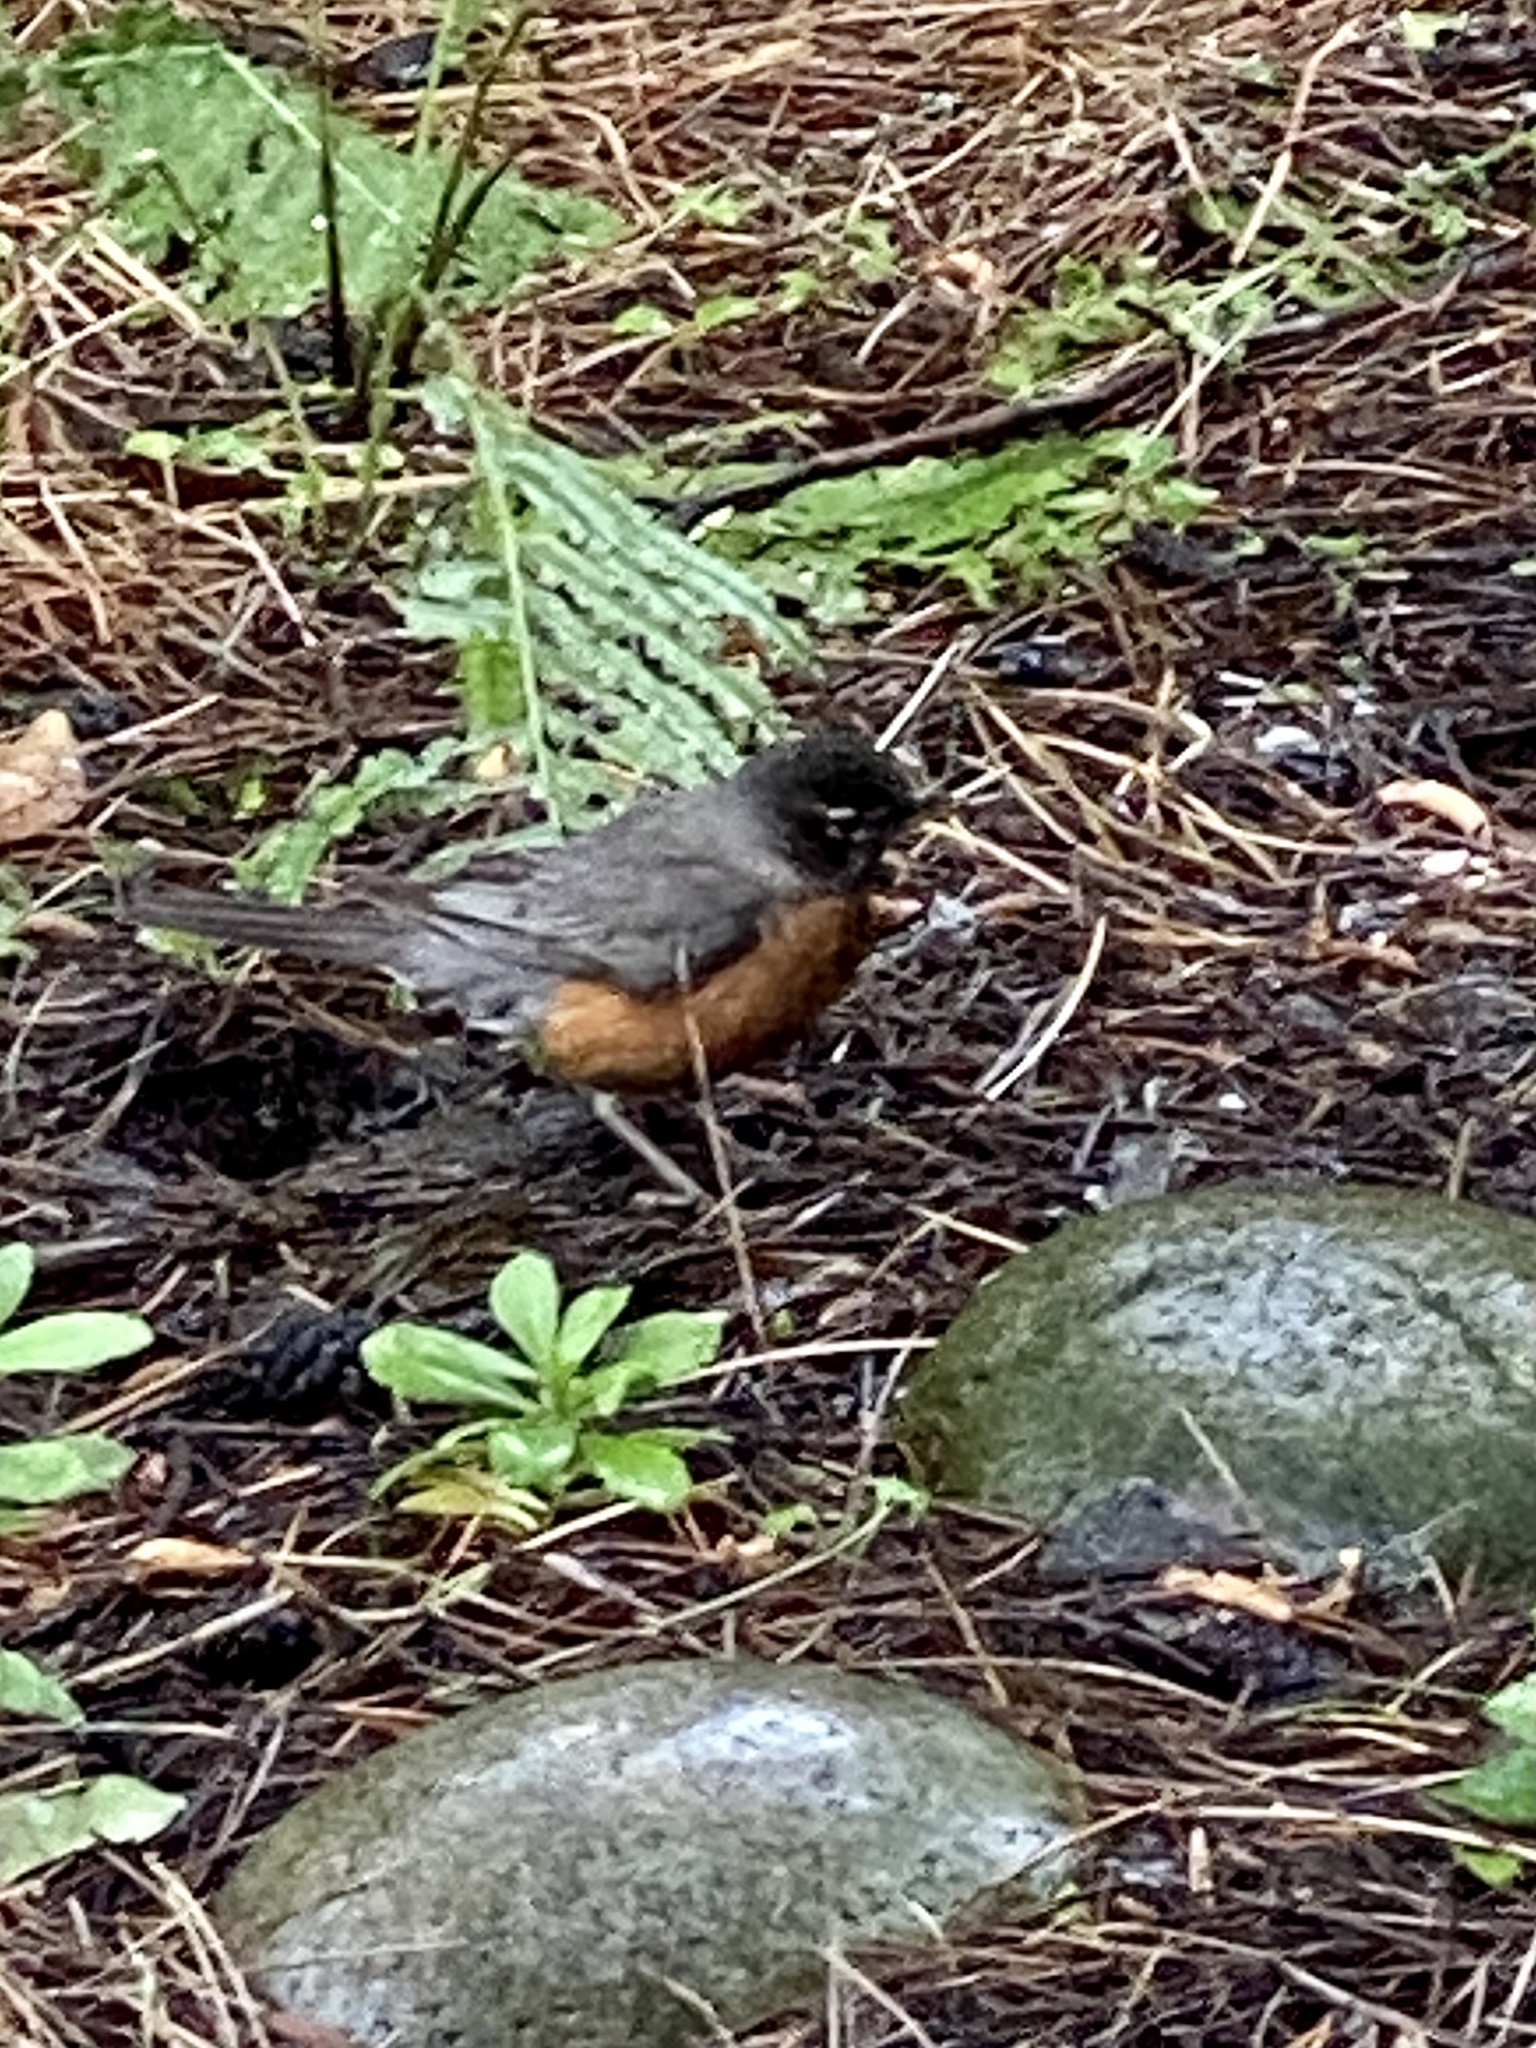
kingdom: Animalia
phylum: Chordata
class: Aves
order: Passeriformes
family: Turdidae
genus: Turdus
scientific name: Turdus migratorius
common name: American robin
